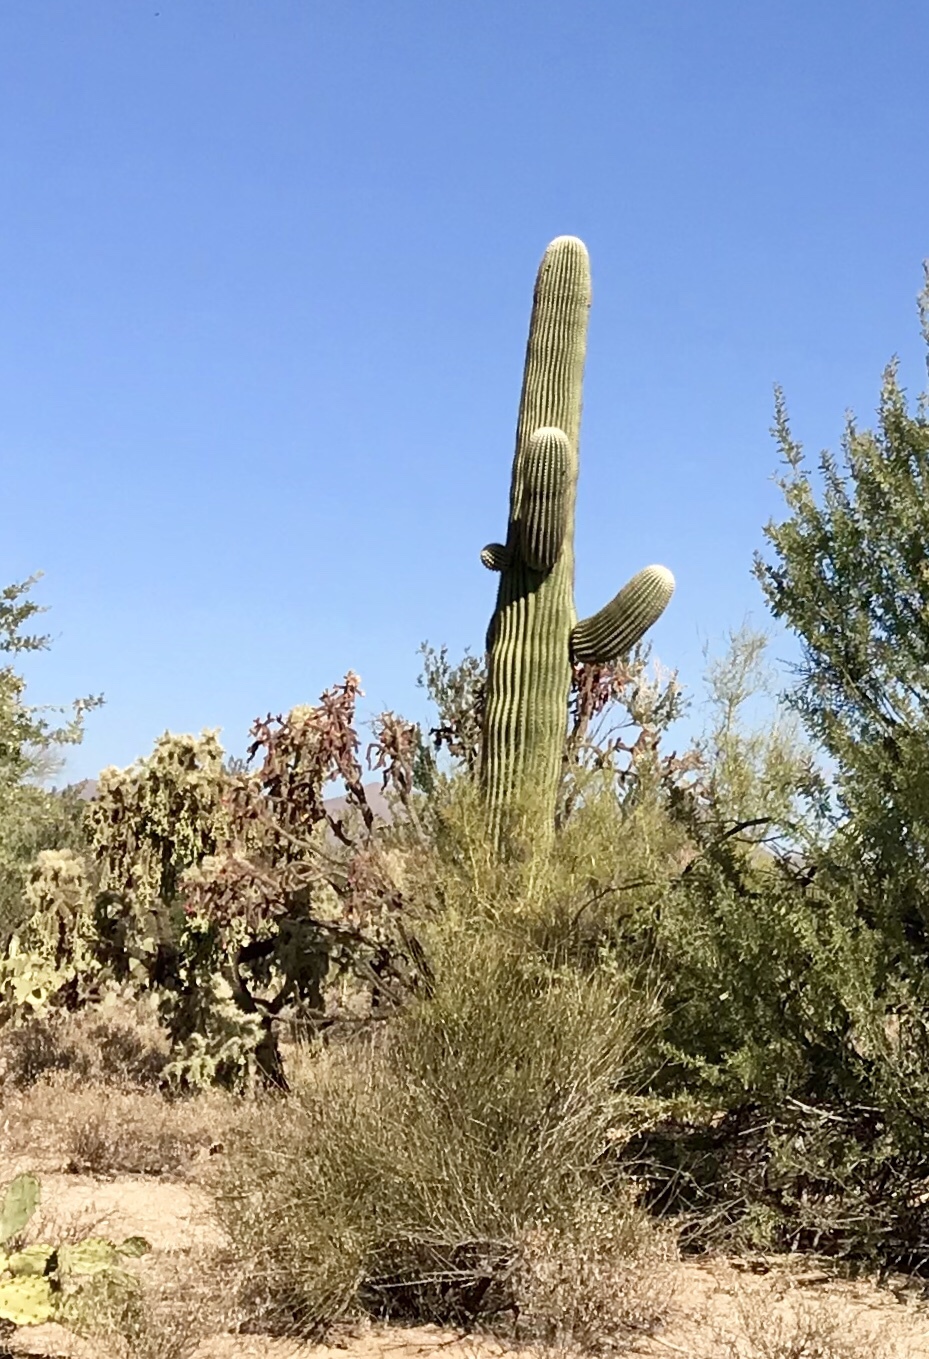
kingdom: Plantae
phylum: Tracheophyta
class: Magnoliopsida
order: Caryophyllales
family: Cactaceae
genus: Carnegiea
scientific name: Carnegiea gigantea
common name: Saguaro
